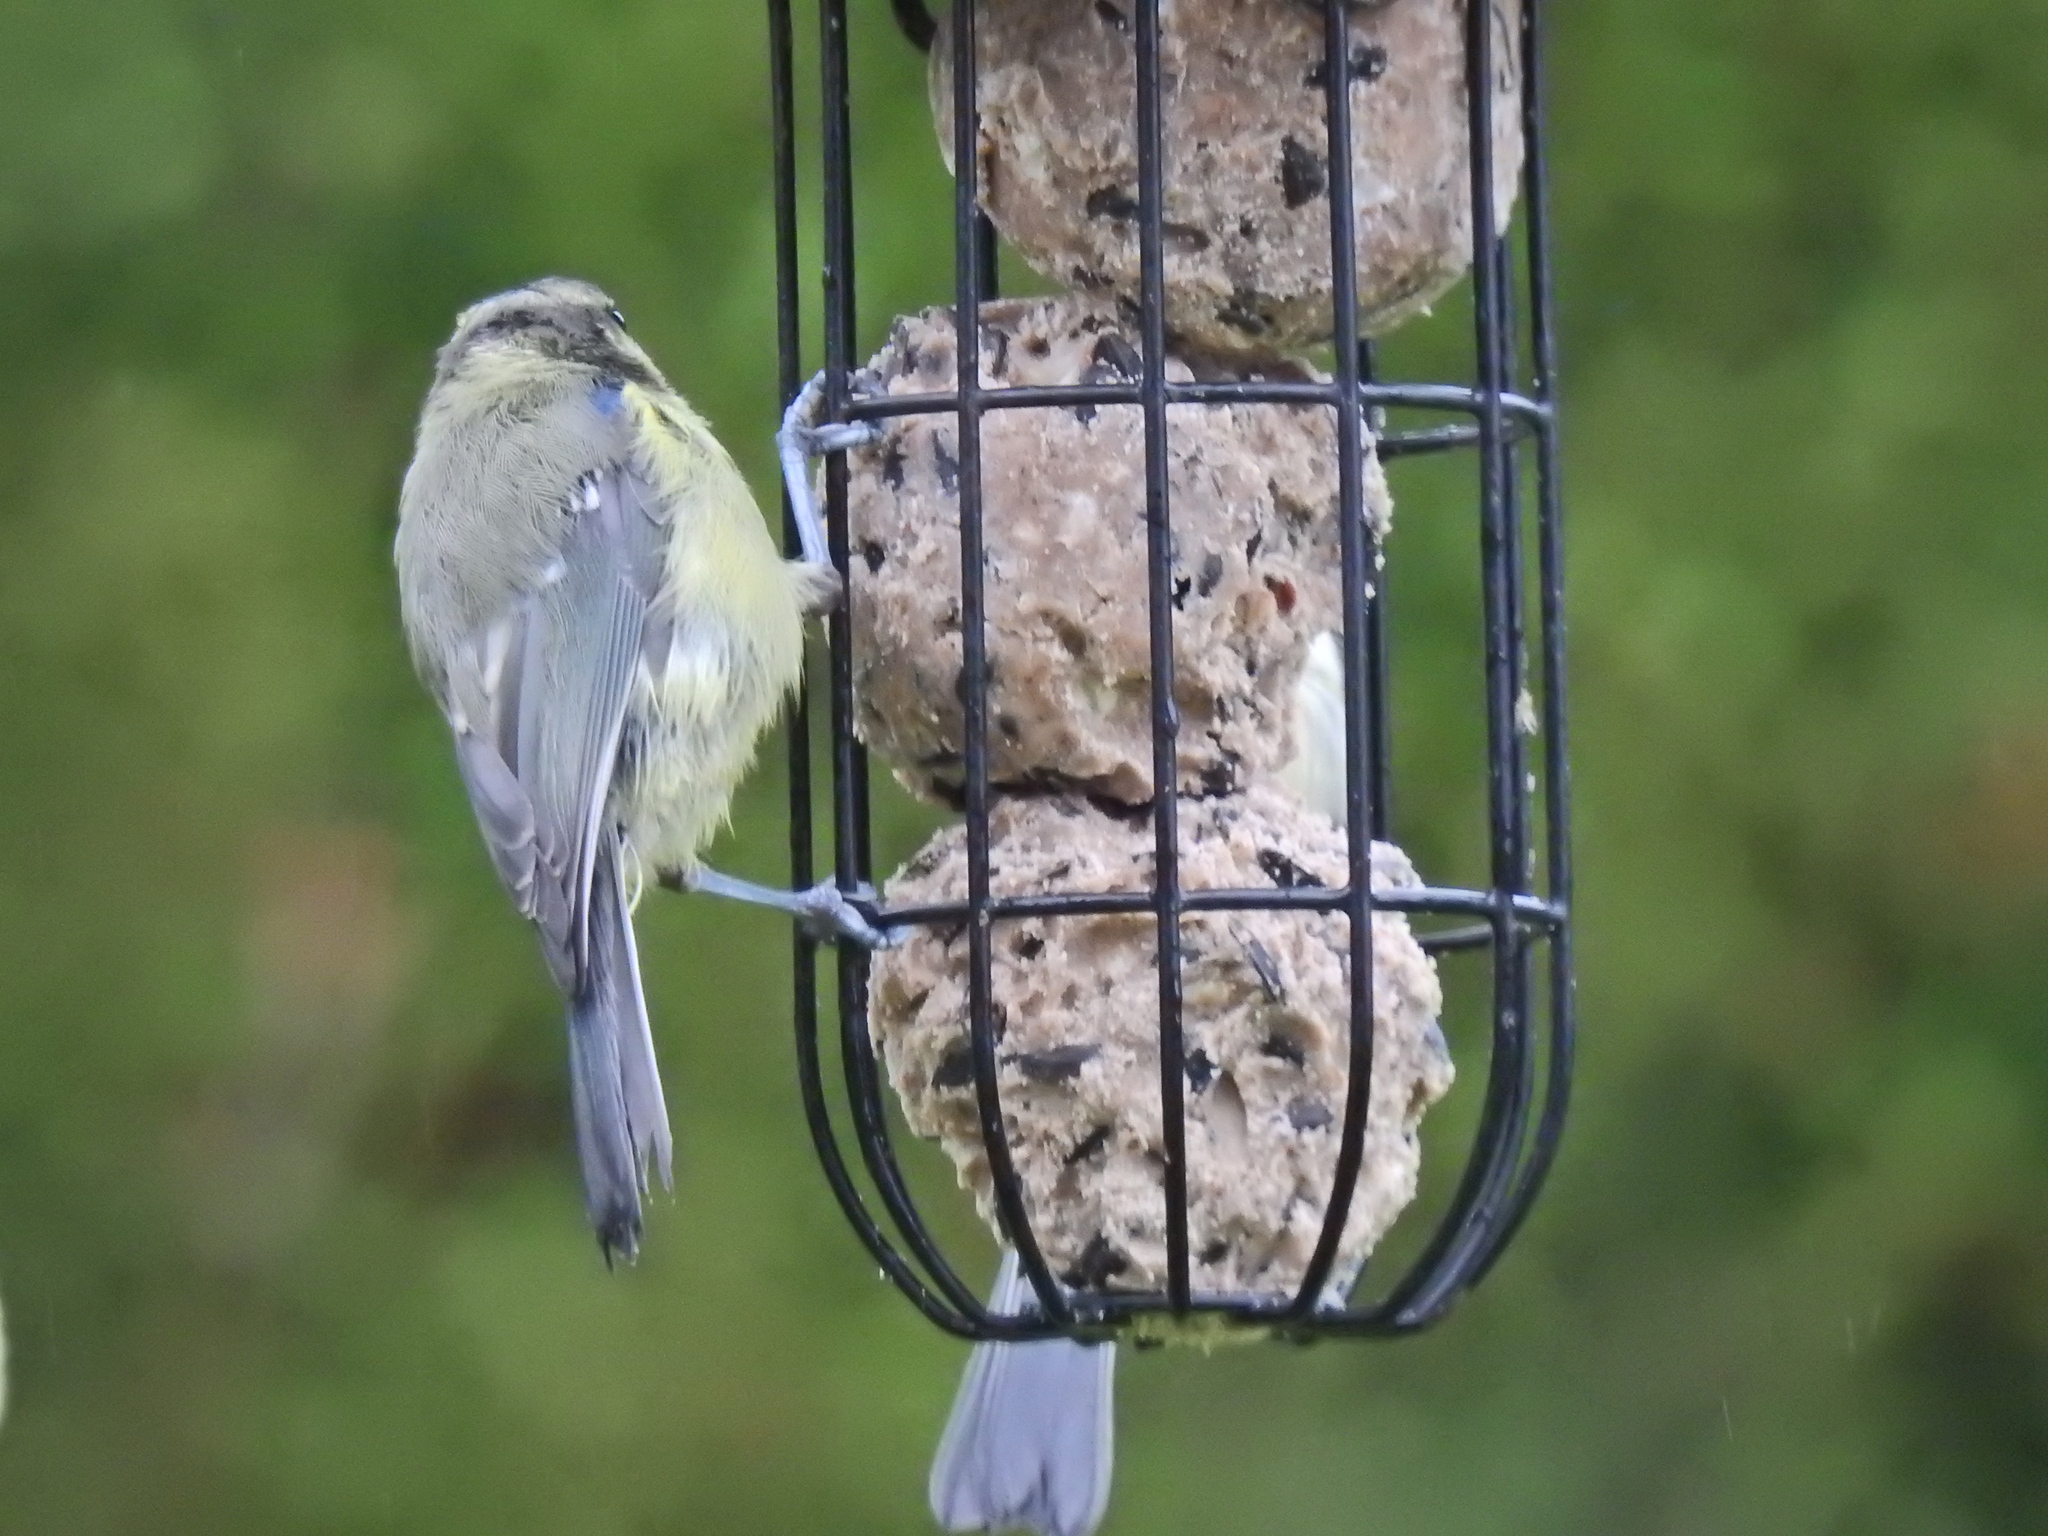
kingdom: Animalia
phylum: Chordata
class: Aves
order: Passeriformes
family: Paridae
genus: Cyanistes
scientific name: Cyanistes caeruleus
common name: Eurasian blue tit
